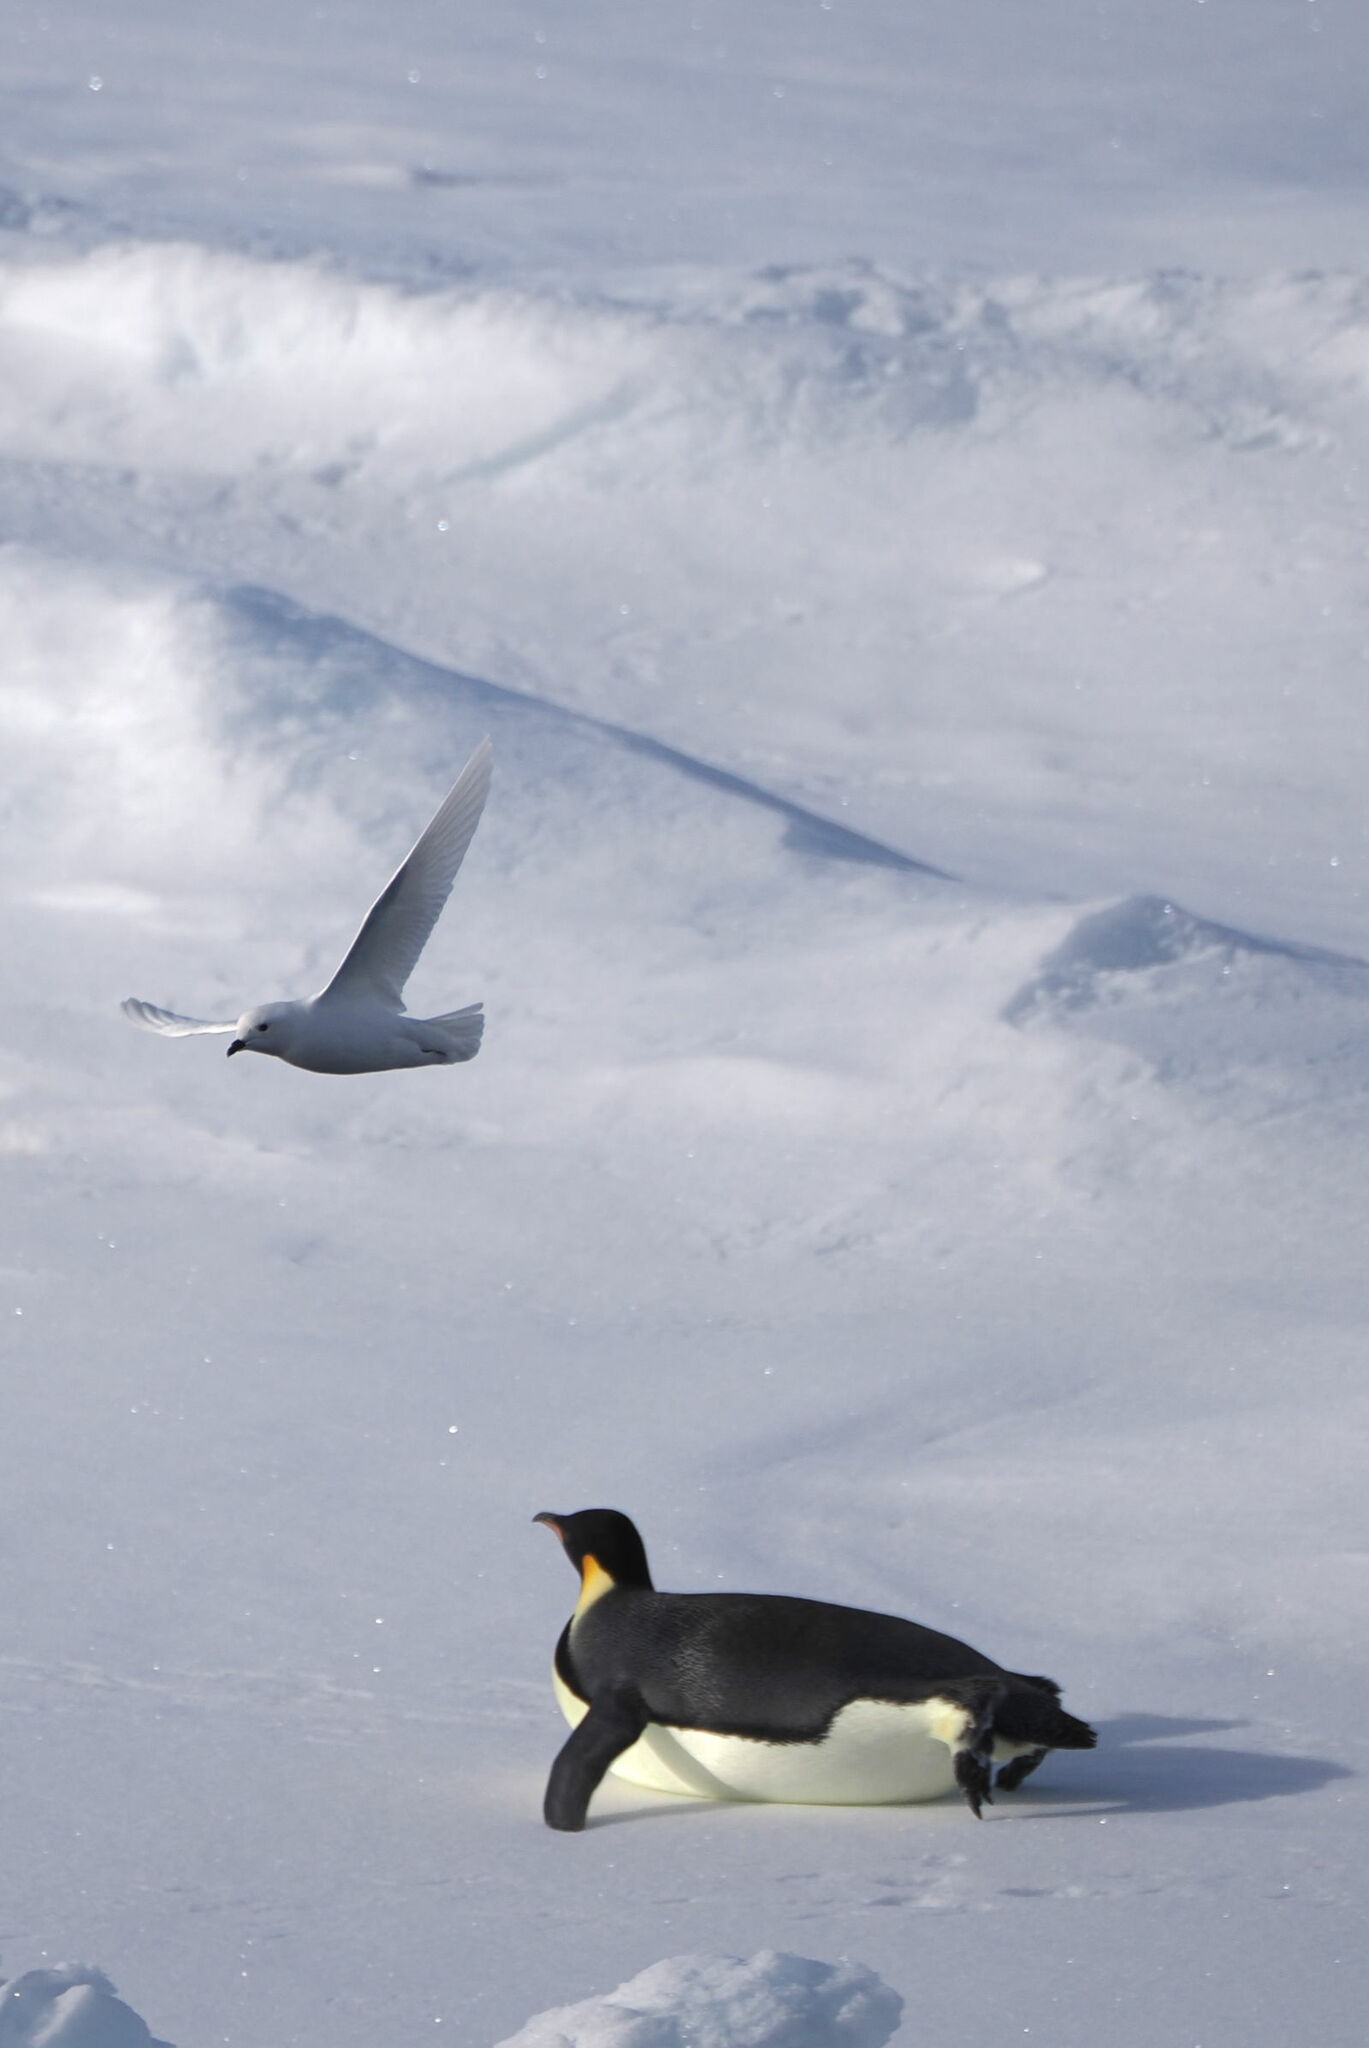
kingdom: Animalia
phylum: Chordata
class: Aves
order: Procellariiformes
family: Procellariidae
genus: Pagodroma
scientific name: Pagodroma nivea
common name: Snow petrel
